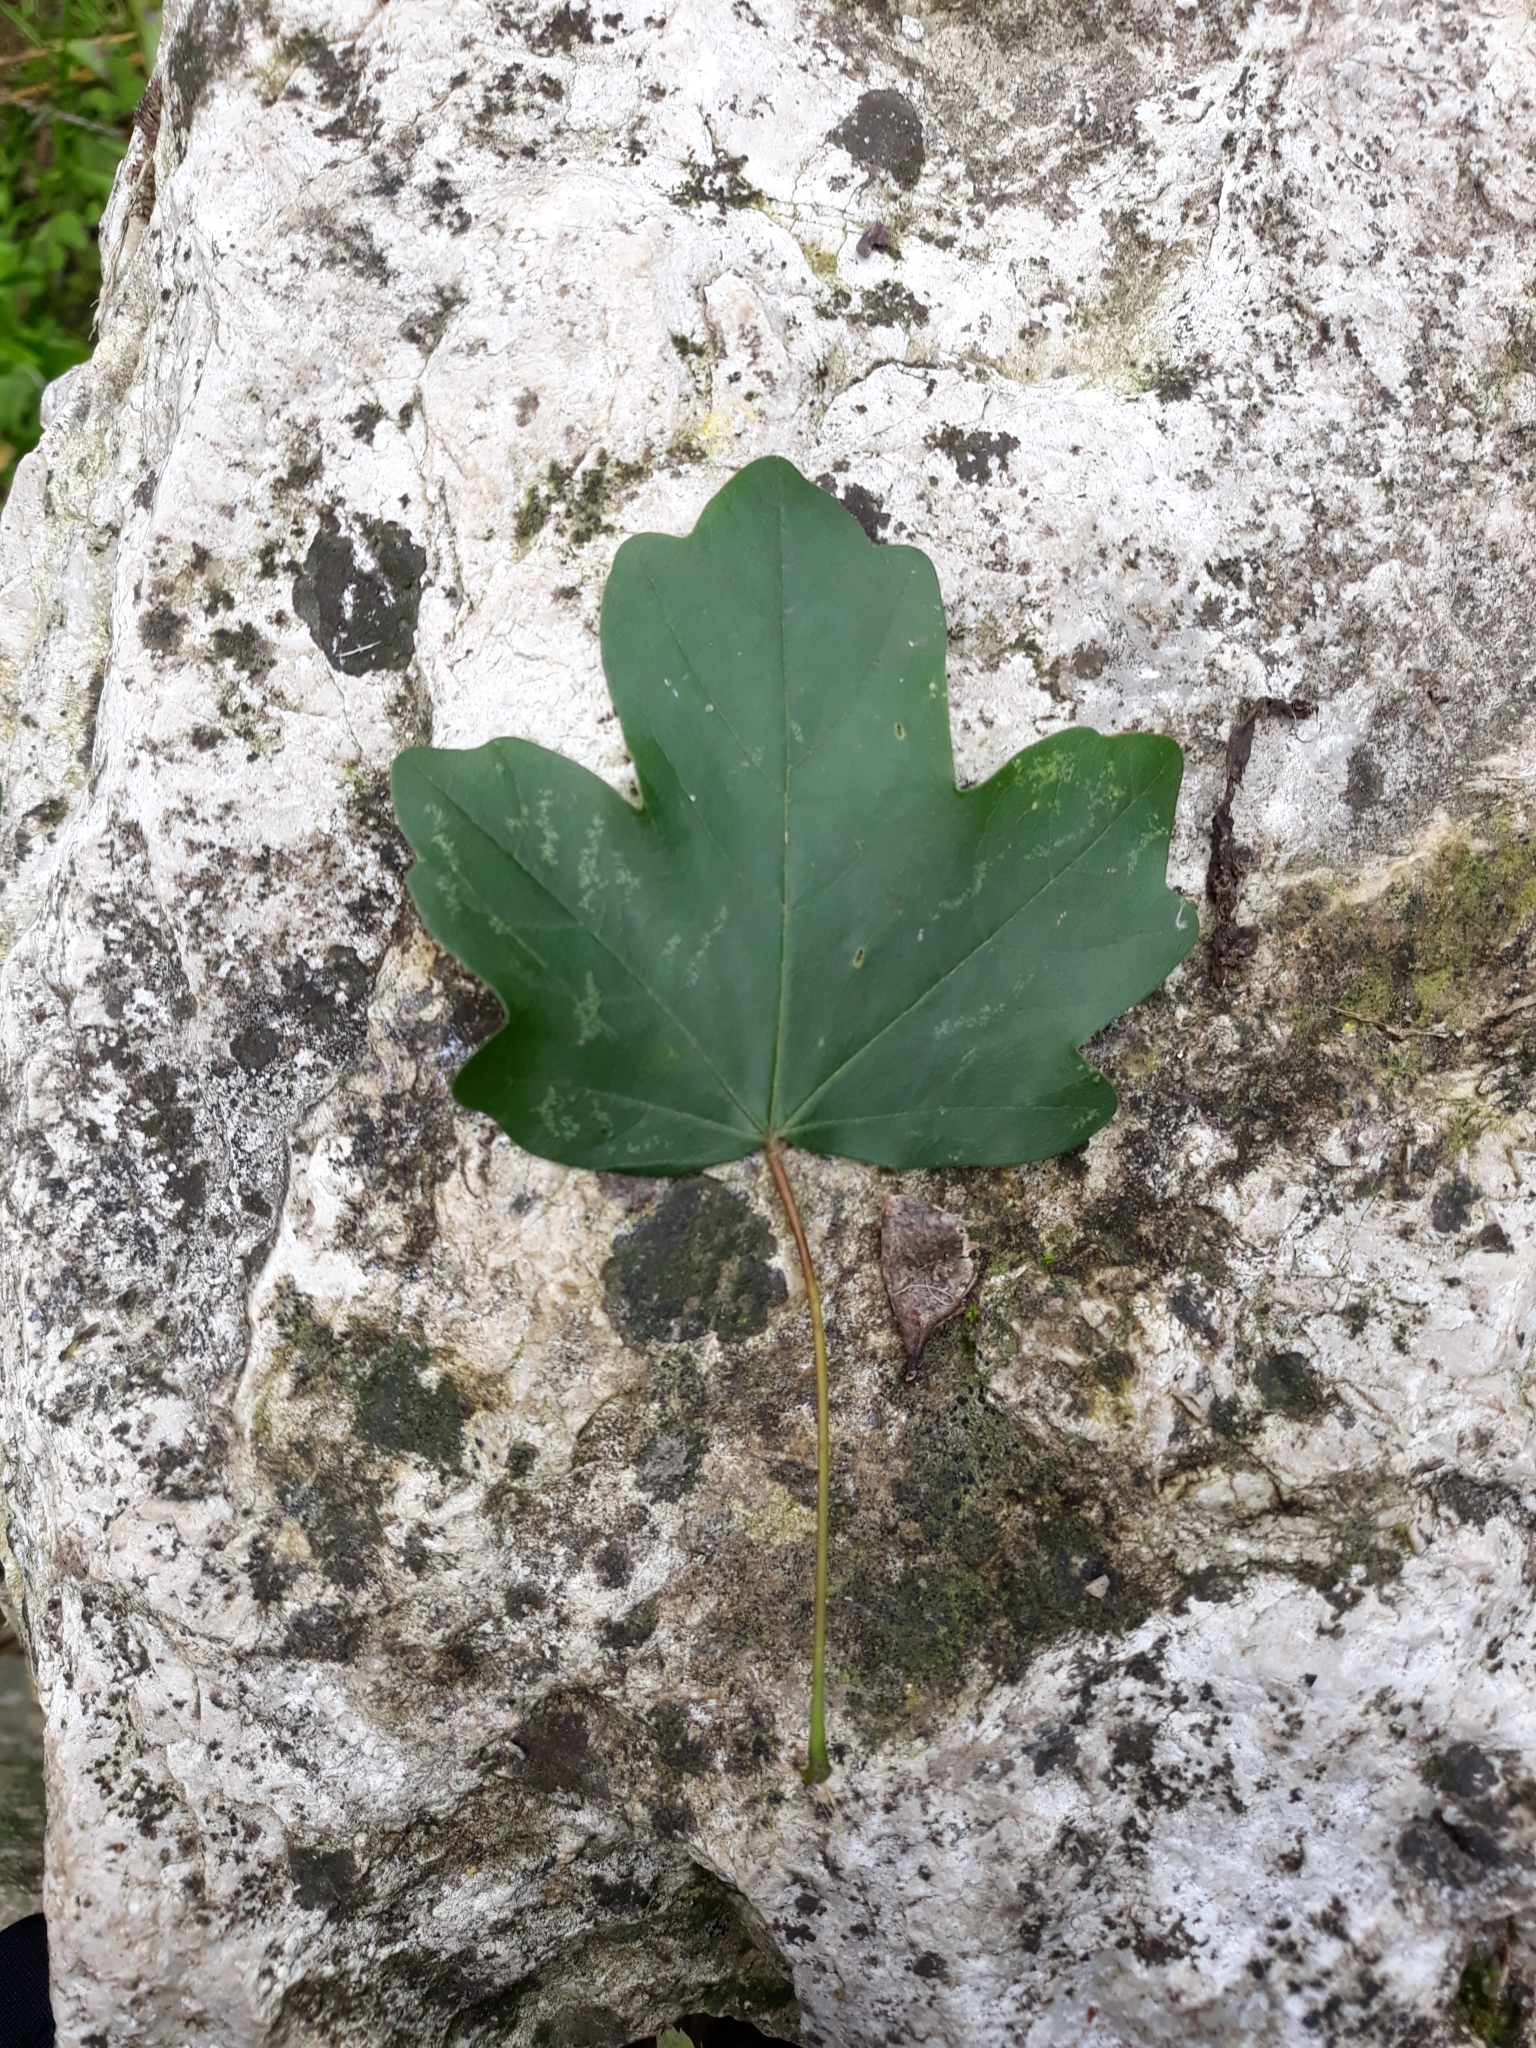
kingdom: Plantae
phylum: Tracheophyta
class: Magnoliopsida
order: Sapindales
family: Sapindaceae
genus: Acer
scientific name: Acer campestre
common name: Field maple
